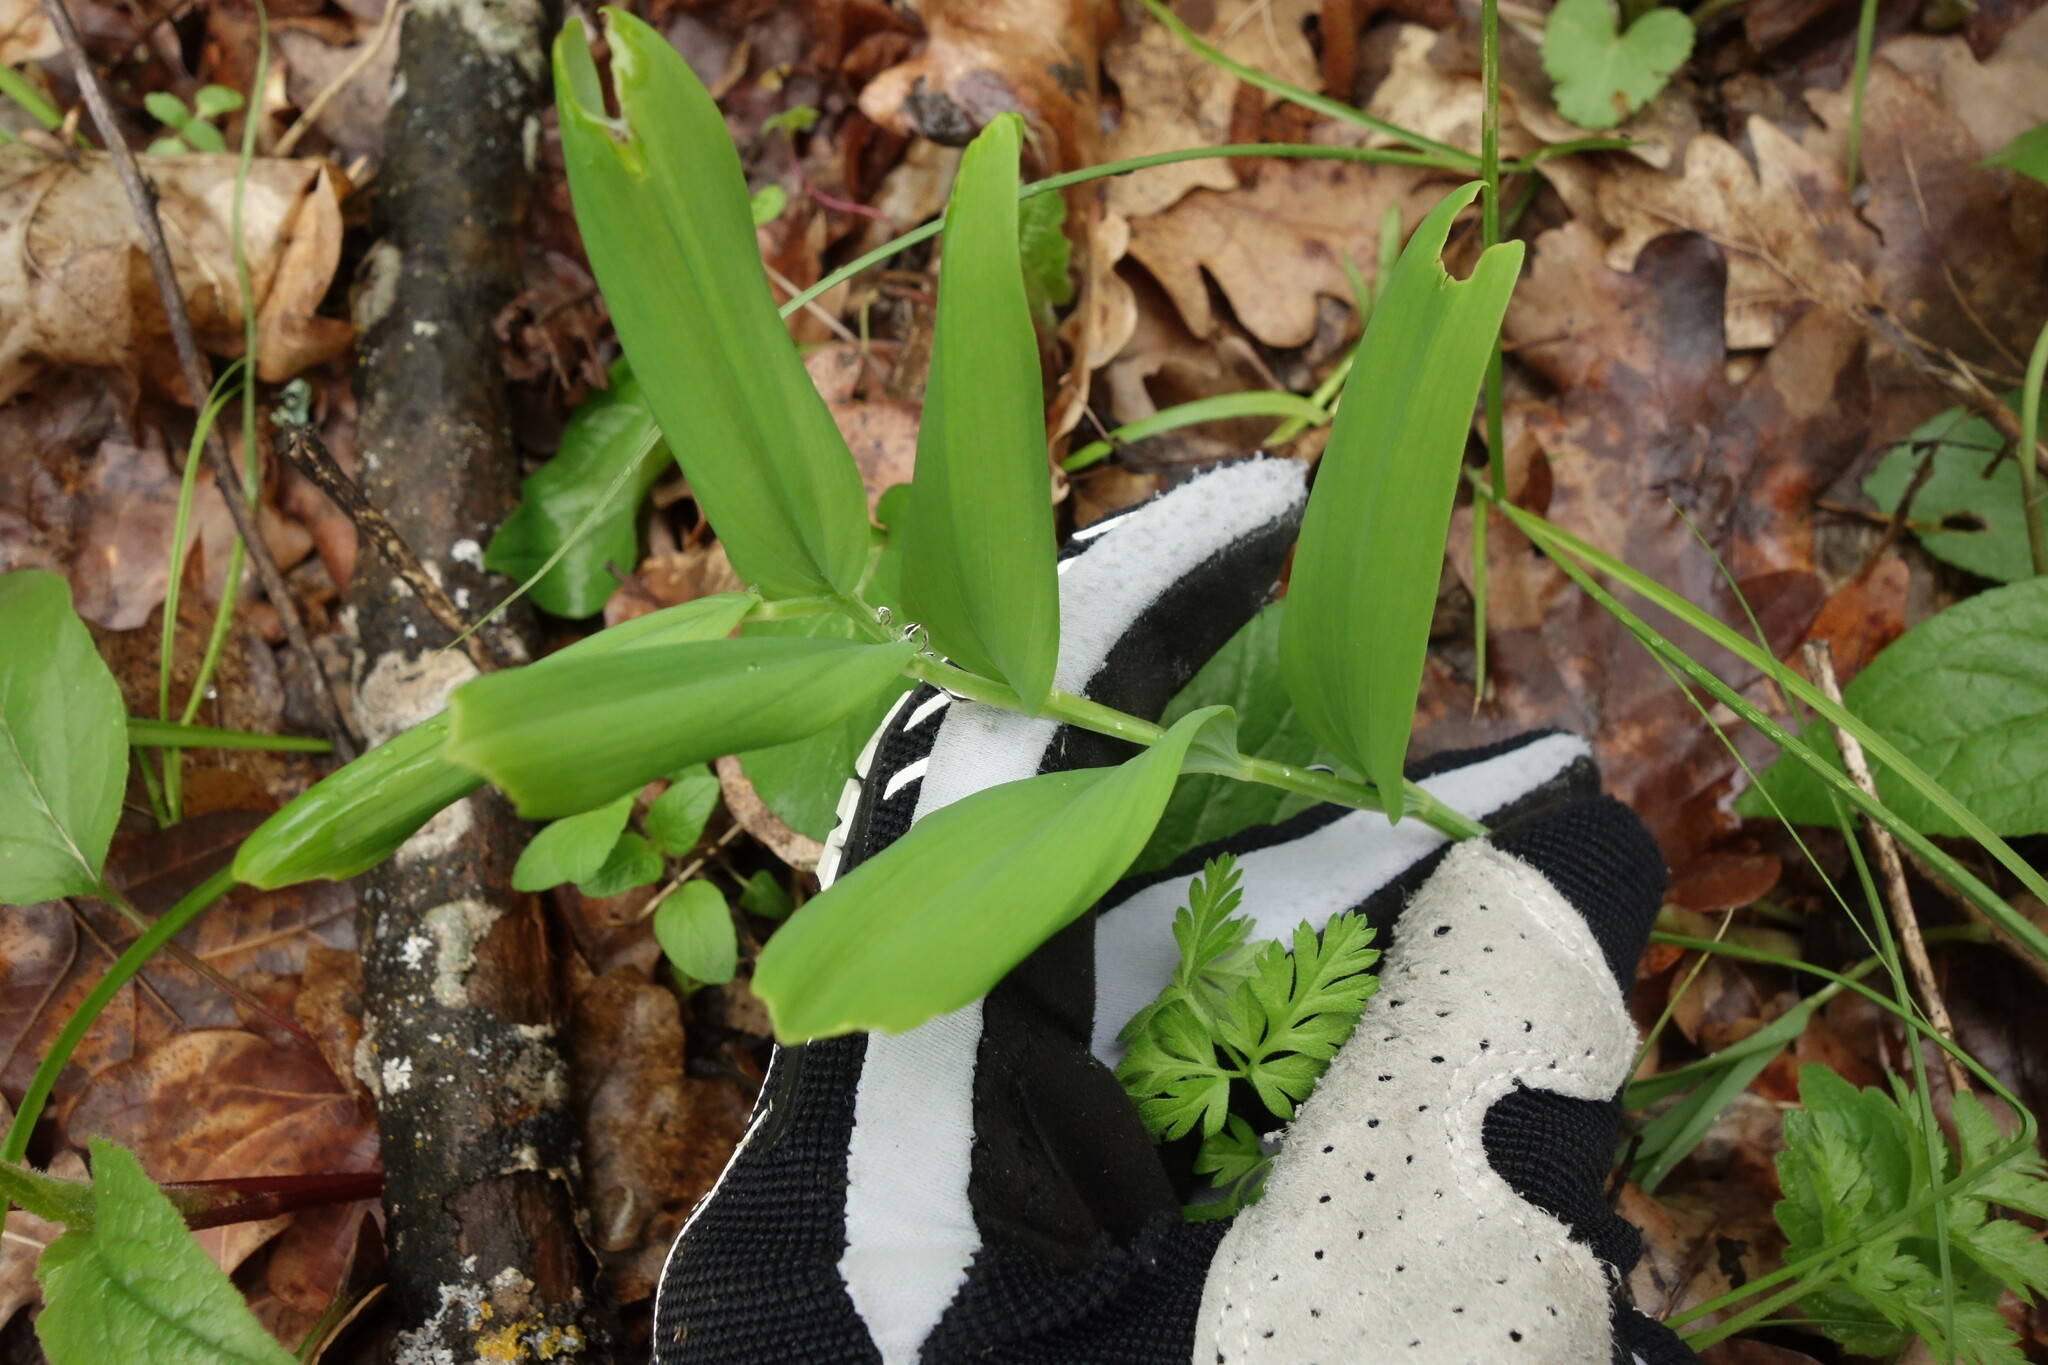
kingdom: Plantae
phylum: Tracheophyta
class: Liliopsida
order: Asparagales
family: Asparagaceae
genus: Polygonatum
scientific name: Polygonatum odoratum
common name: Angular solomon's-seal
